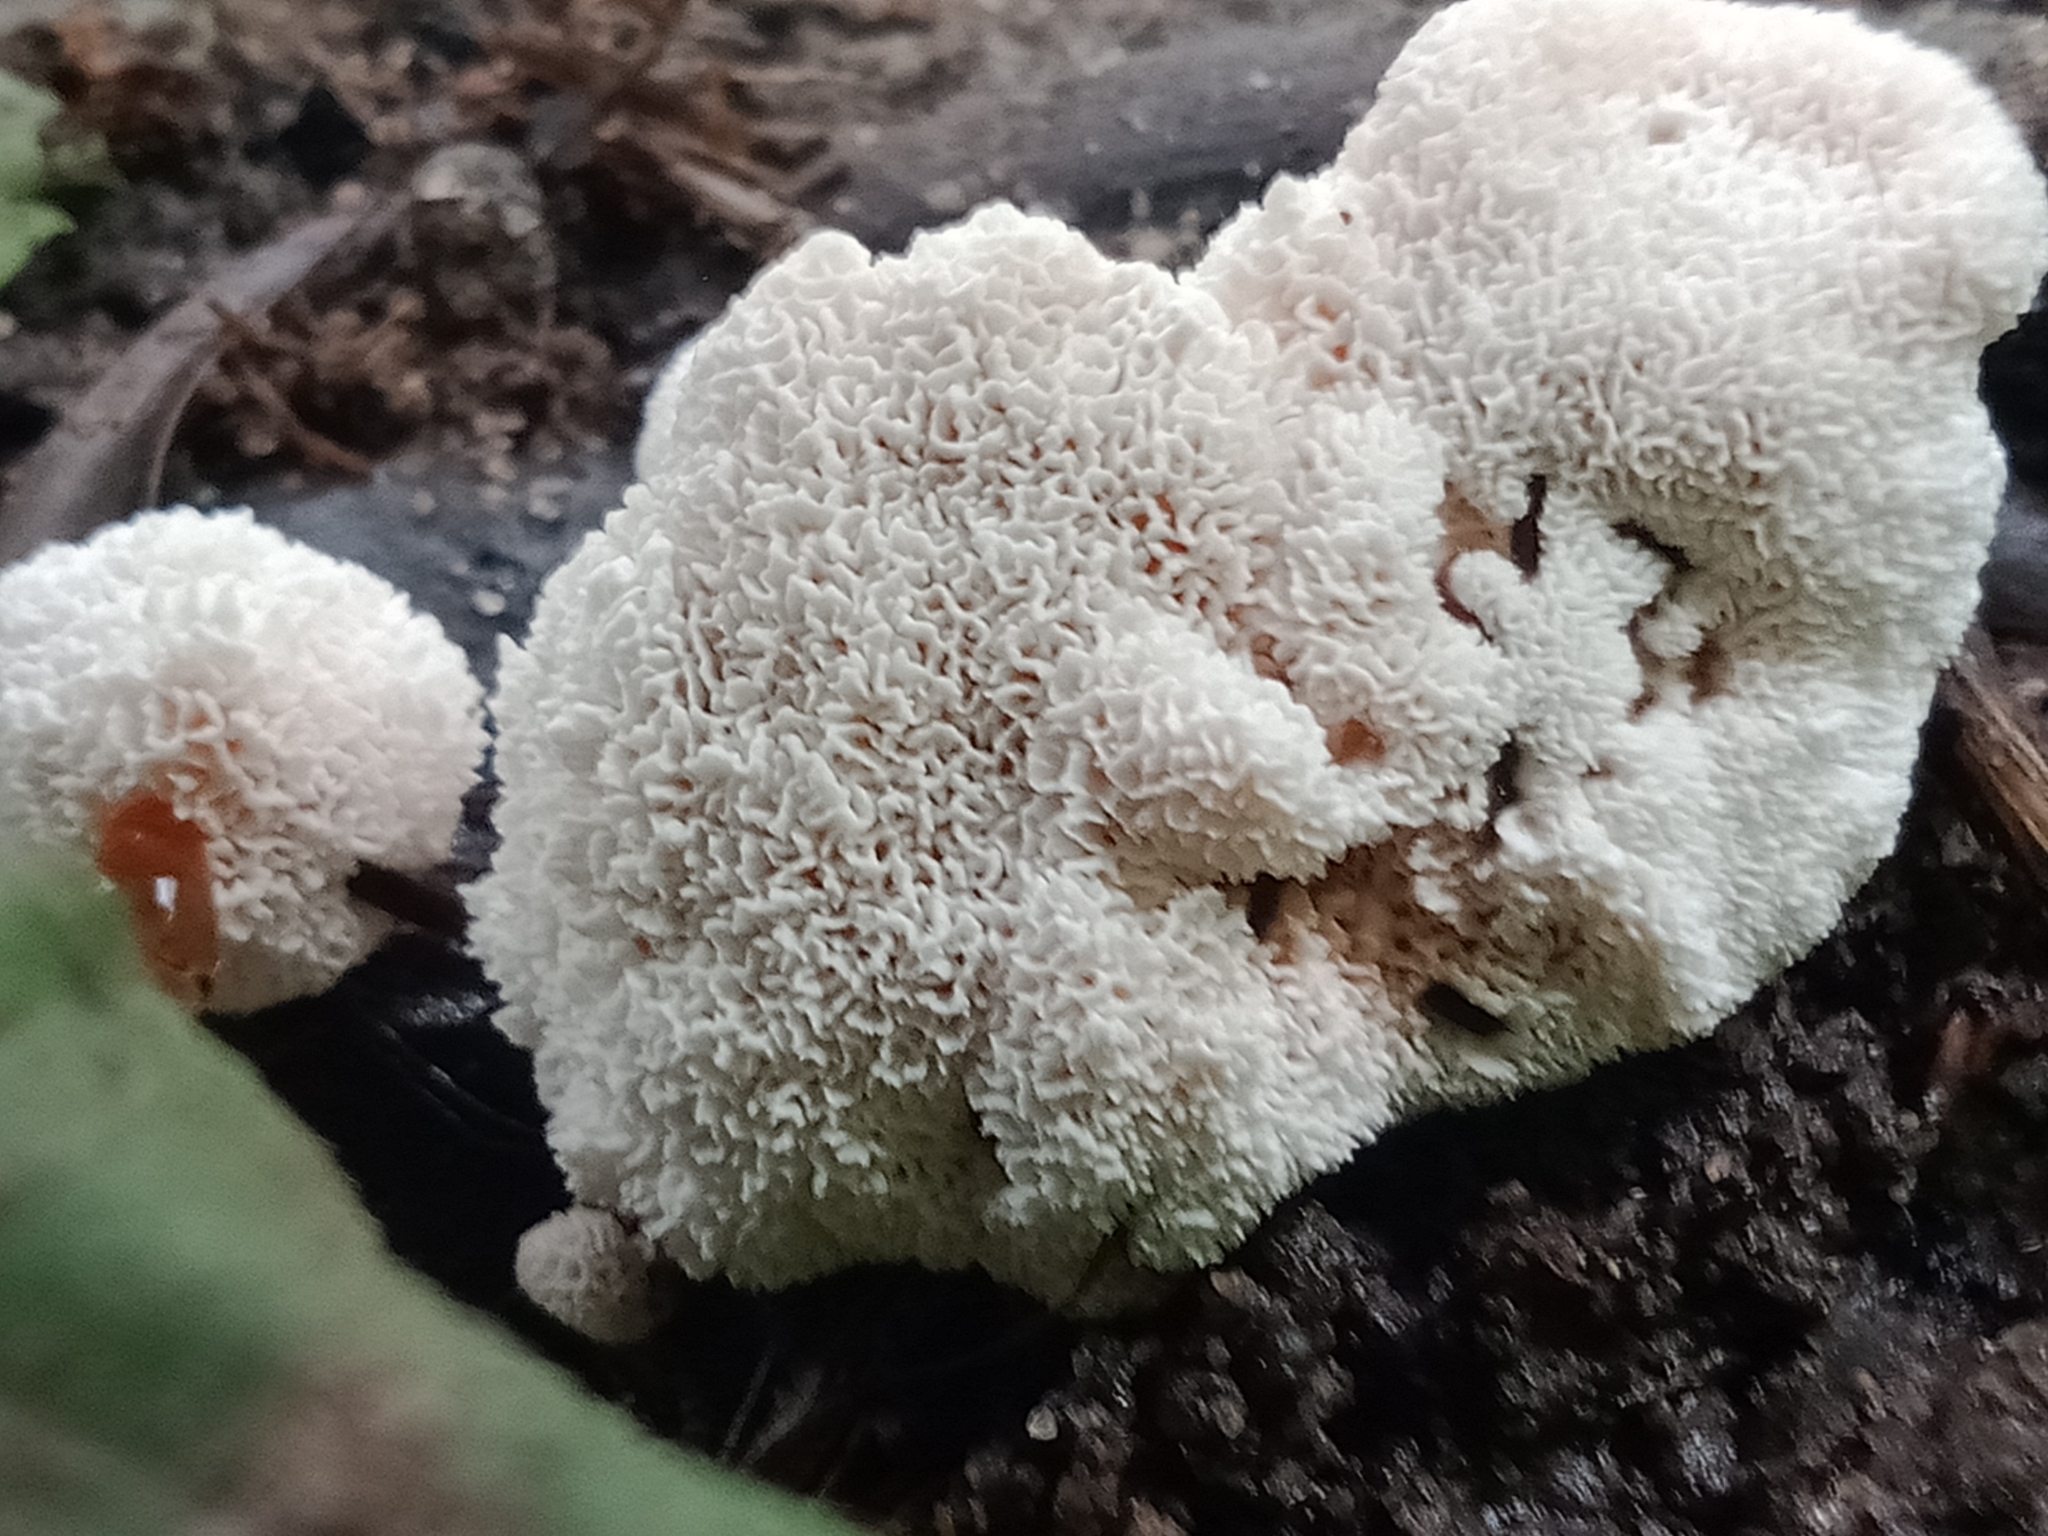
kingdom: Fungi
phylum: Basidiomycota
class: Agaricomycetes
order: Polyporales
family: Podoscyphaceae
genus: Abortiporus
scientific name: Abortiporus biennis
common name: Blushing rosette
